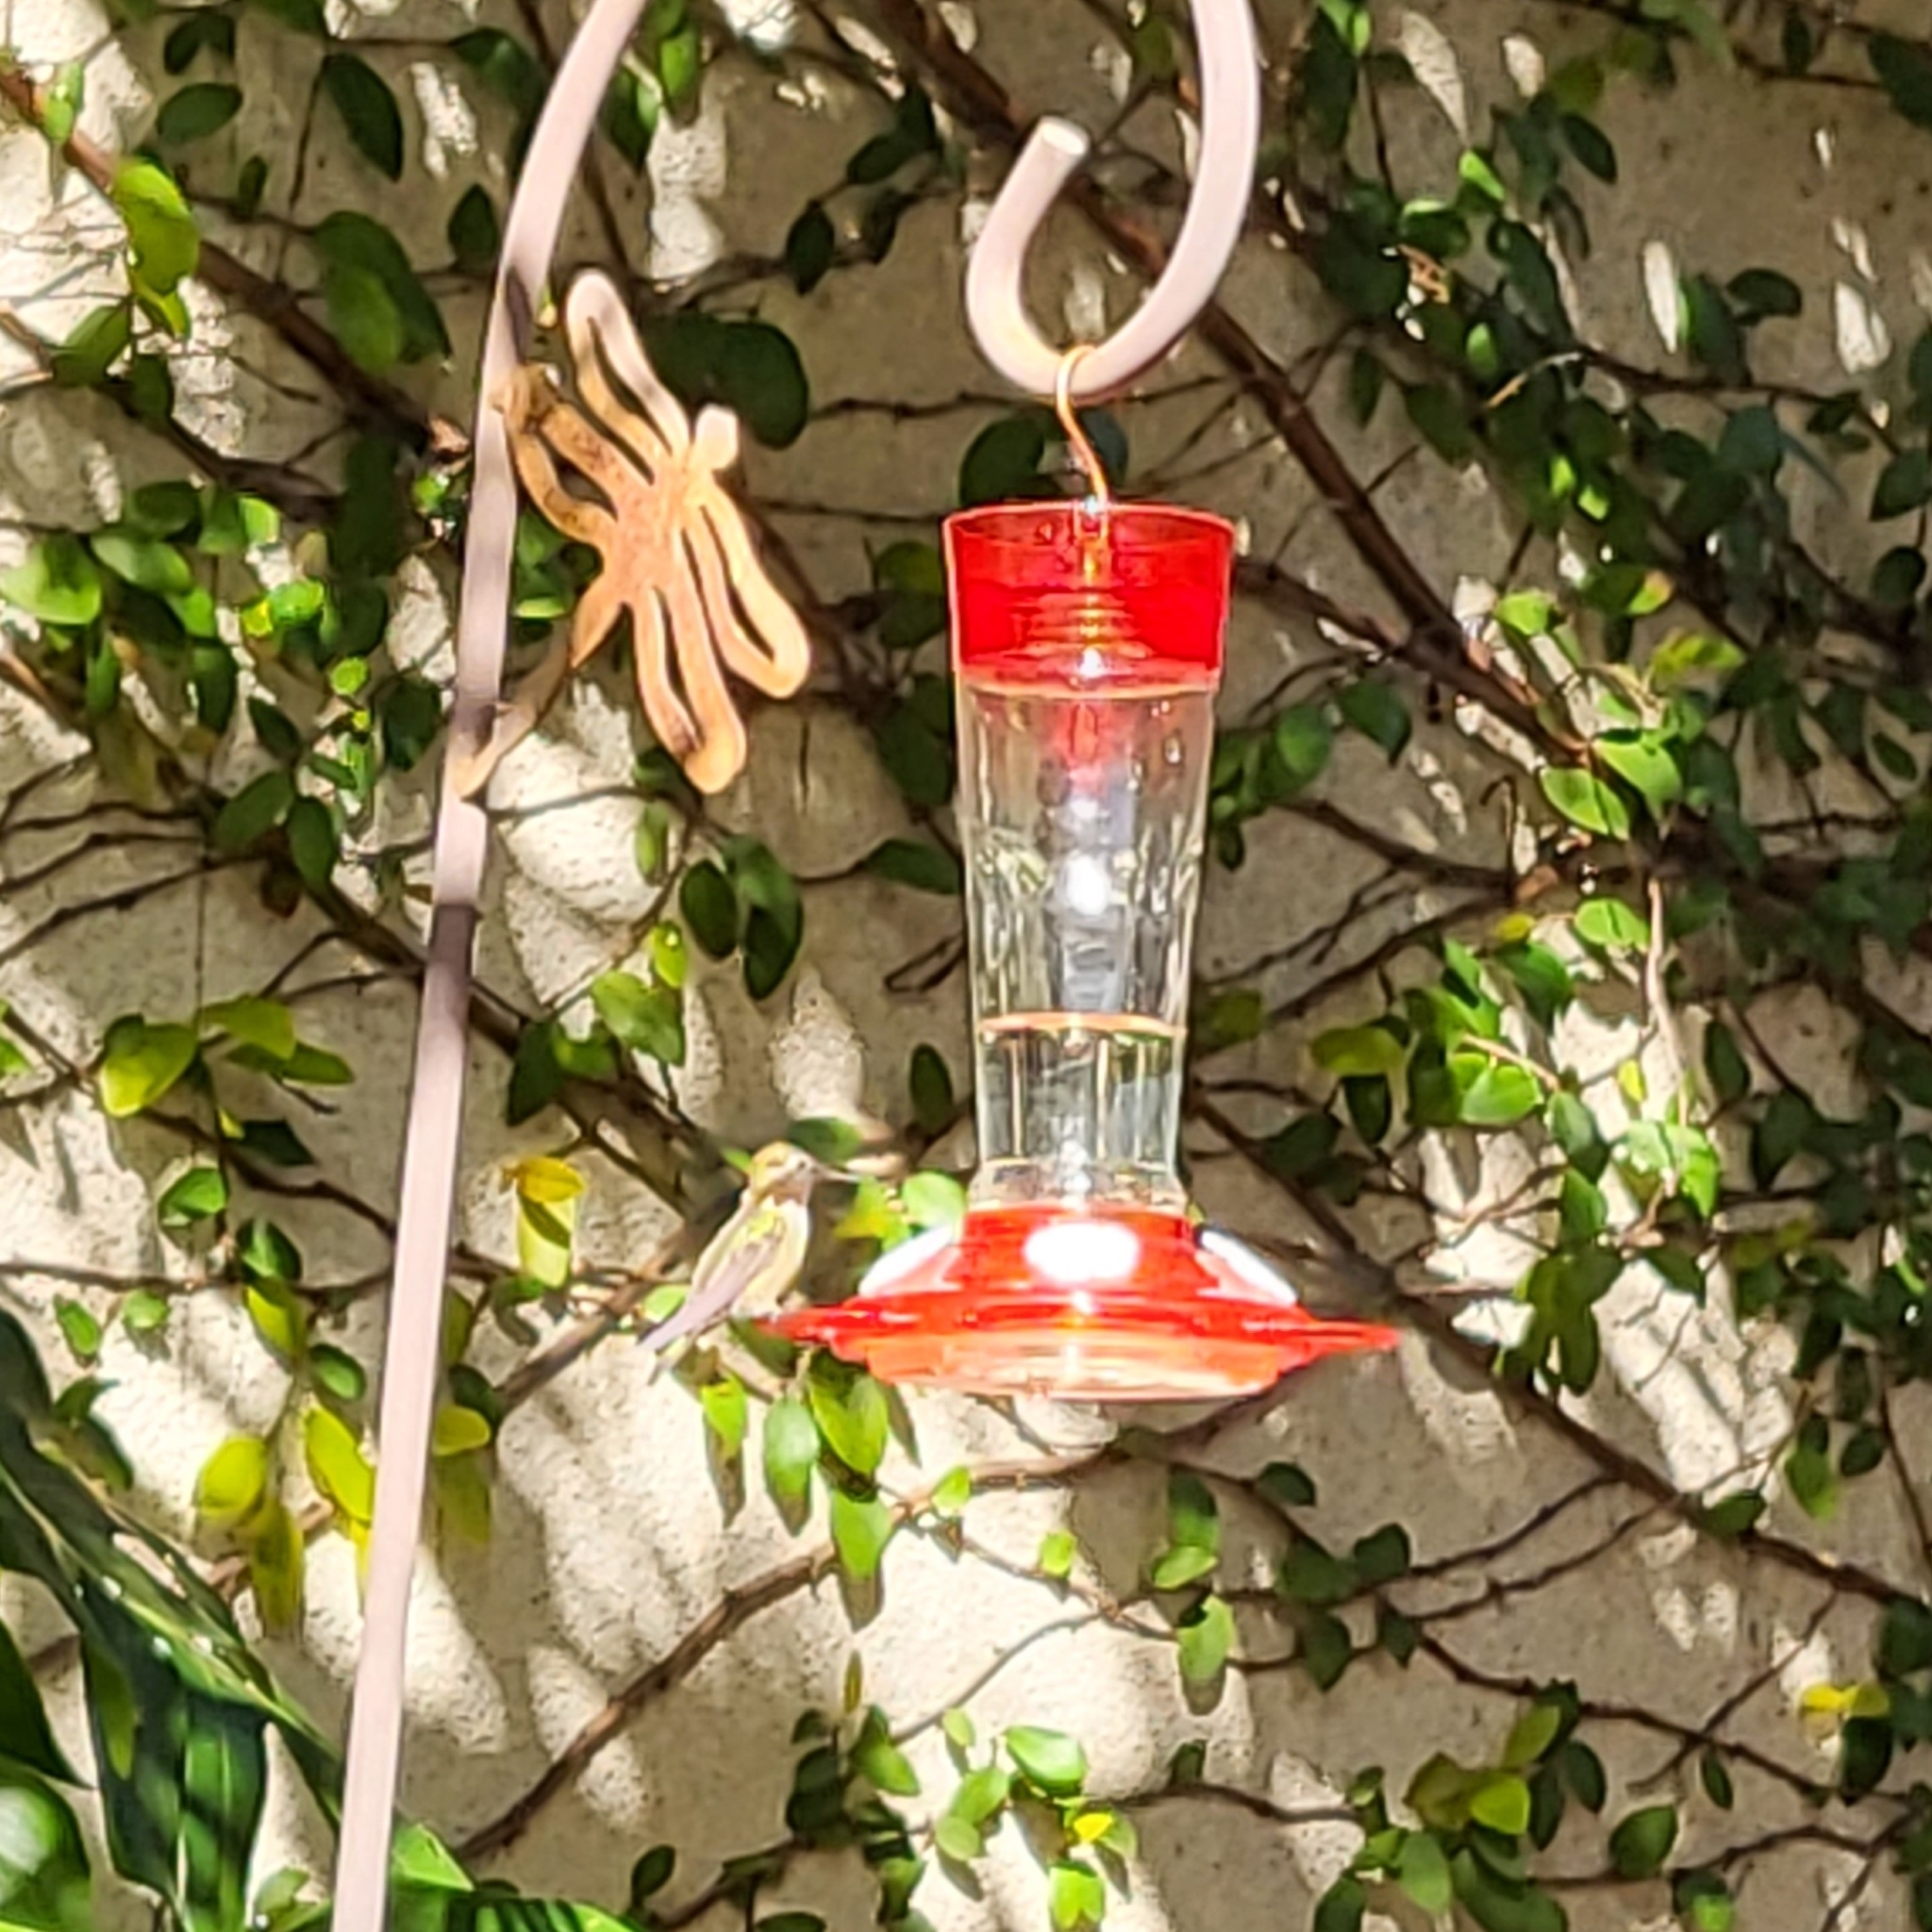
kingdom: Animalia
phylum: Chordata
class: Aves
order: Apodiformes
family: Trochilidae
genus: Calypte
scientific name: Calypte anna
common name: Anna's hummingbird
